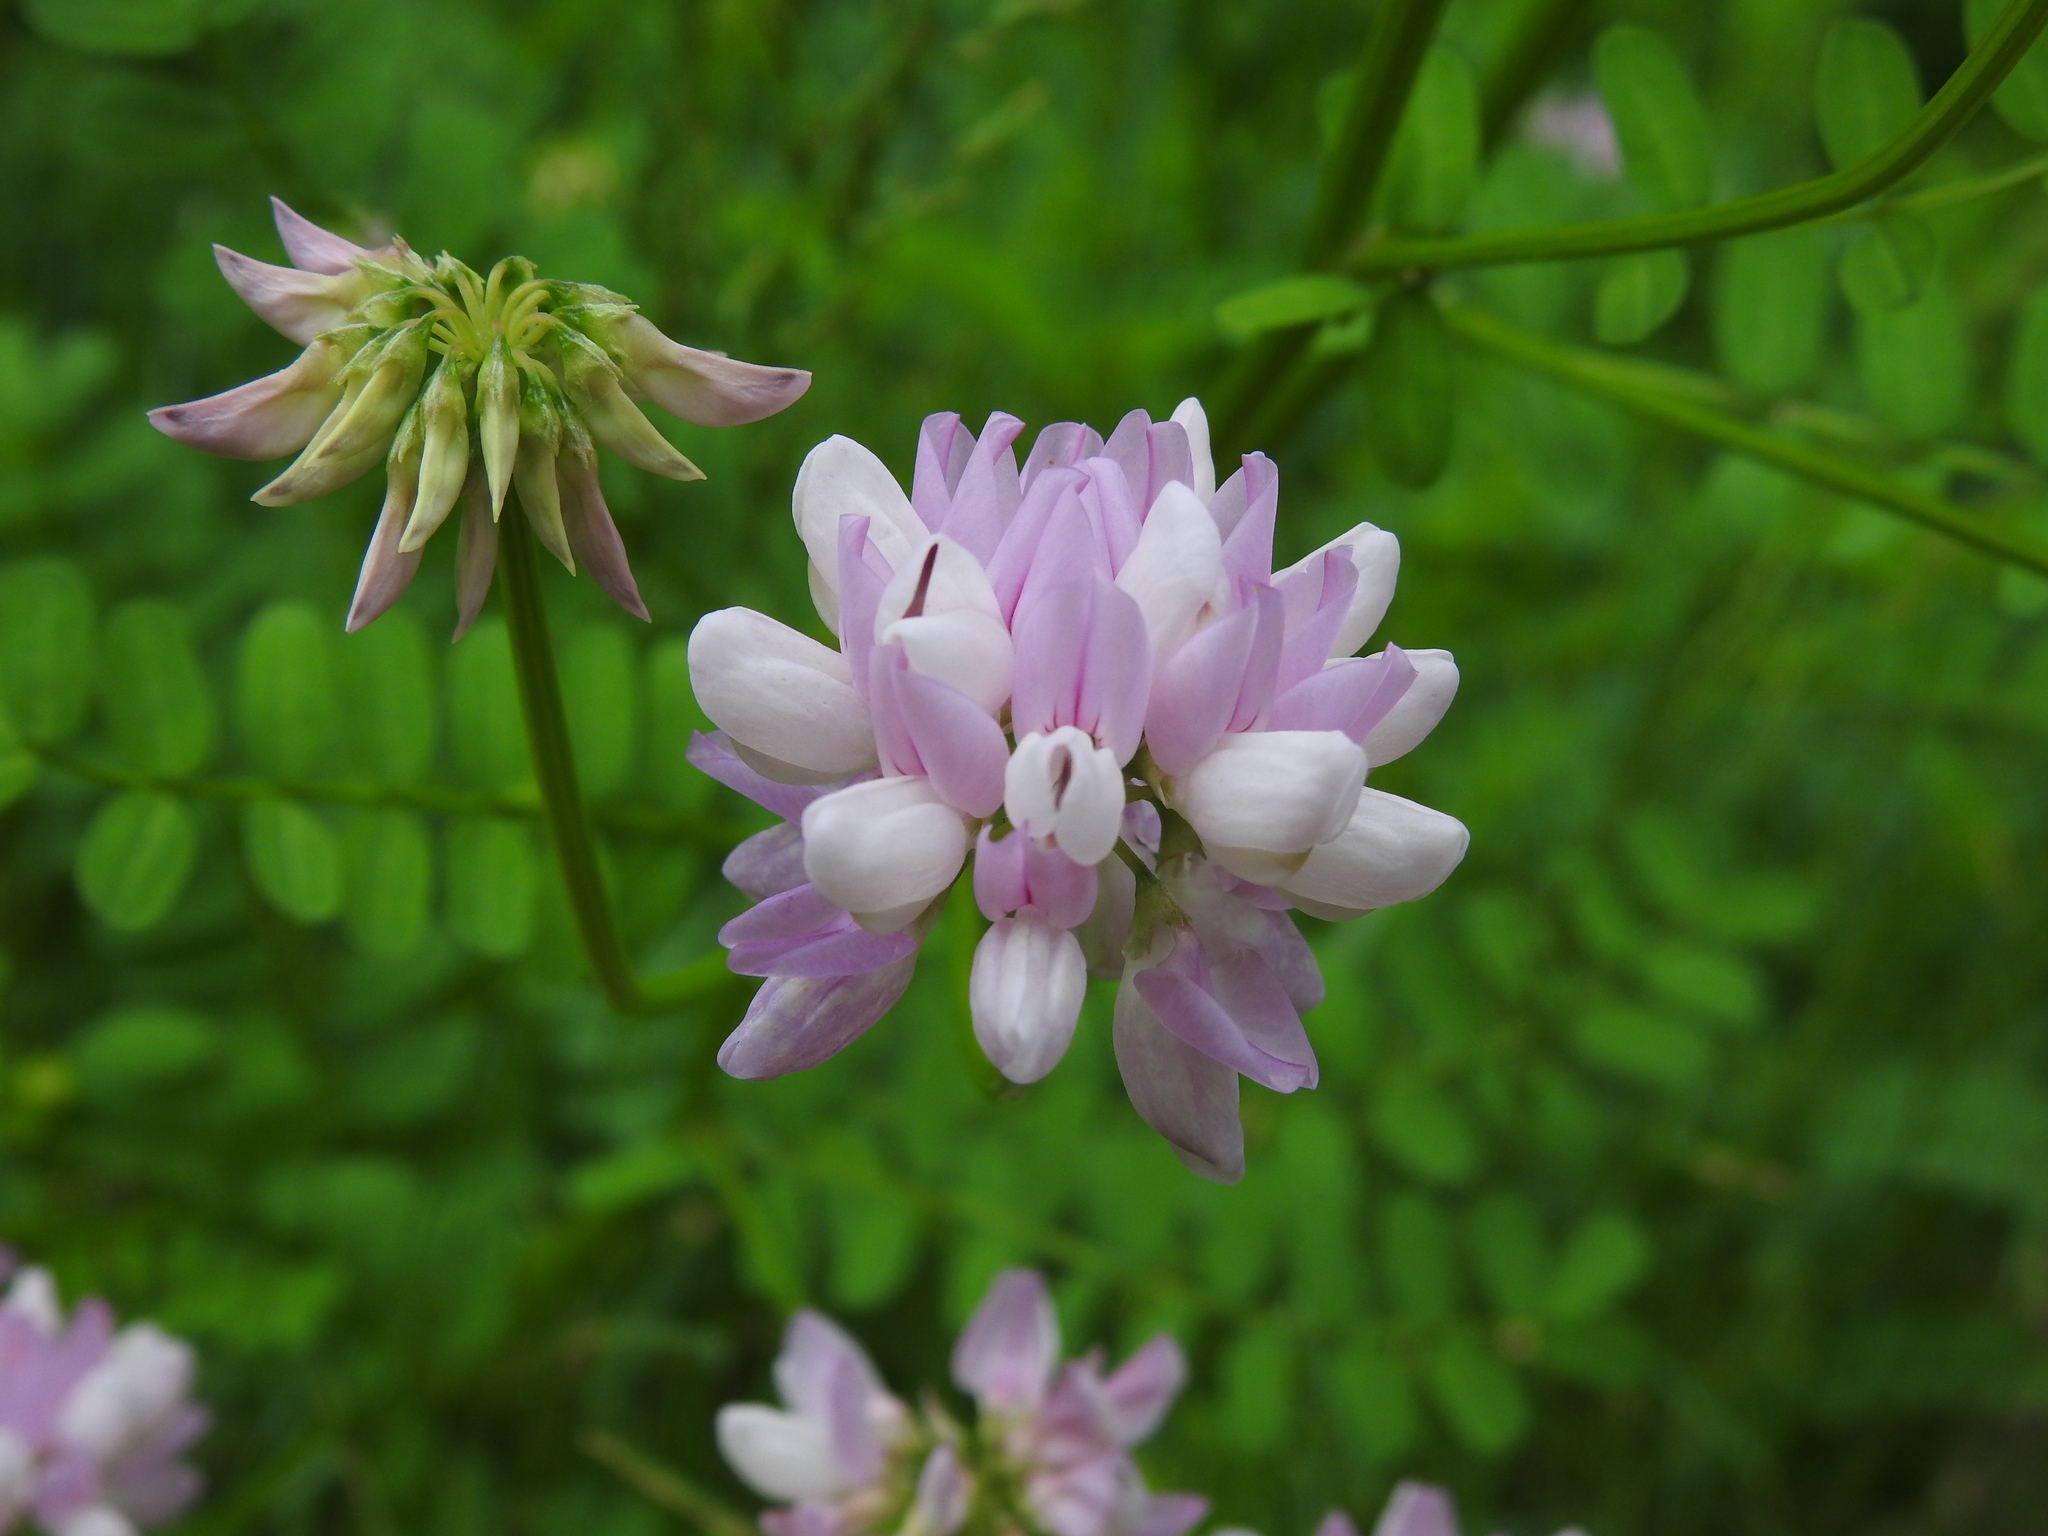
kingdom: Plantae
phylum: Tracheophyta
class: Magnoliopsida
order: Fabales
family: Fabaceae
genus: Coronilla
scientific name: Coronilla varia
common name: Crownvetch
